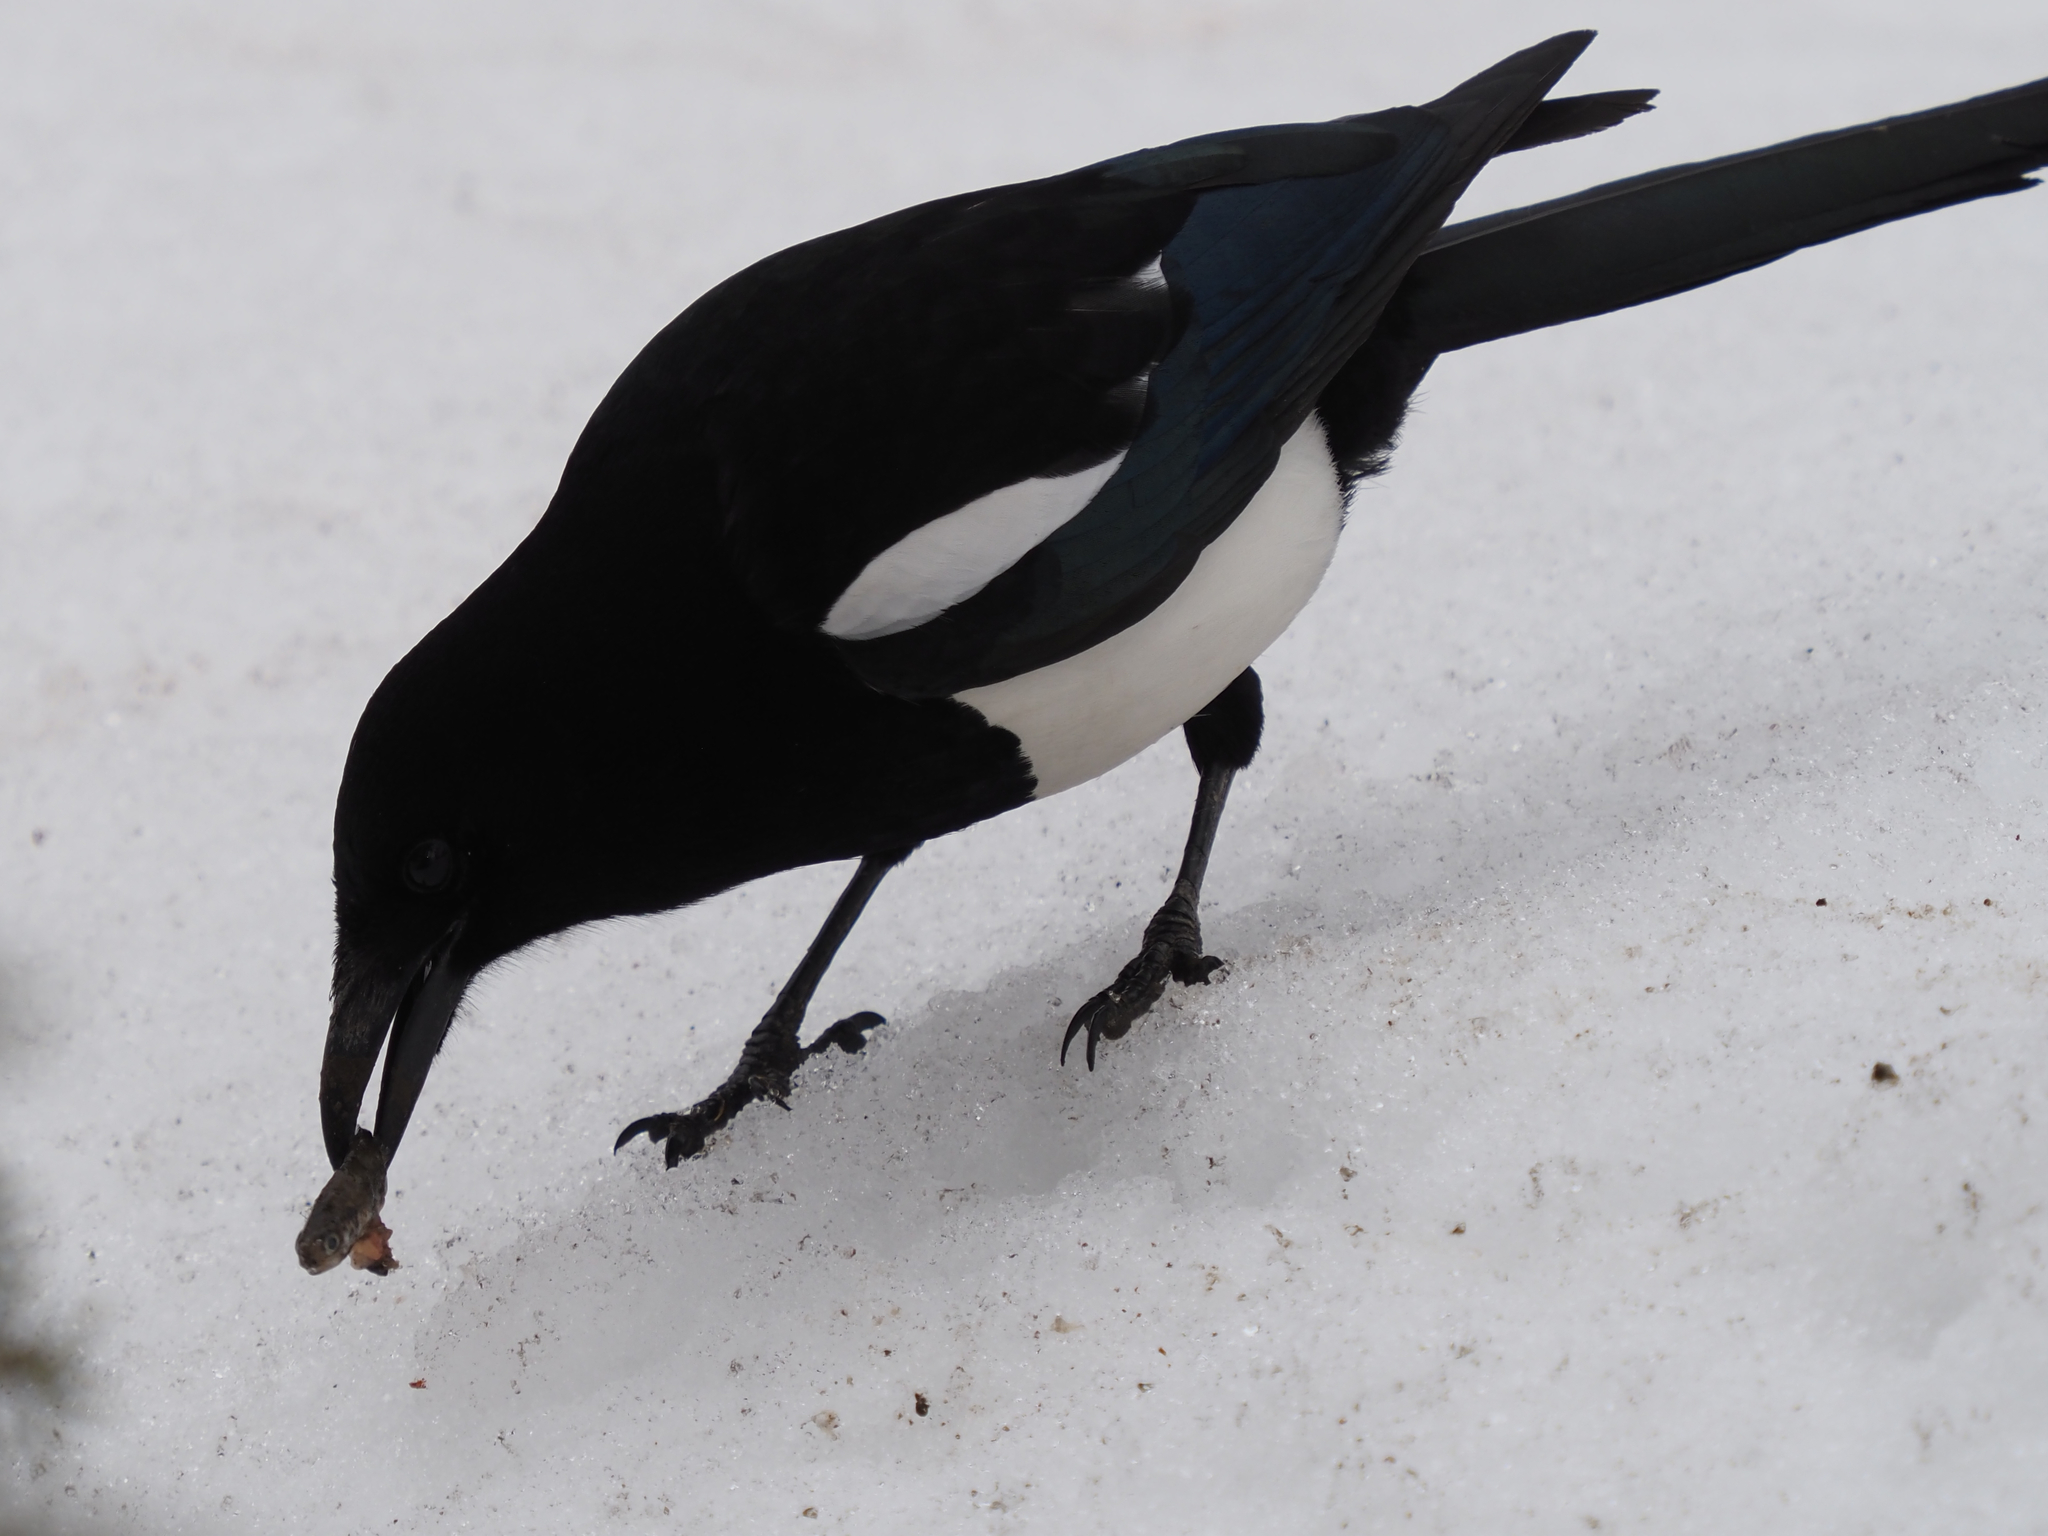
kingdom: Animalia
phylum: Chordata
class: Aves
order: Passeriformes
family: Corvidae
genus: Pica
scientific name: Pica hudsonia
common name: Black-billed magpie
